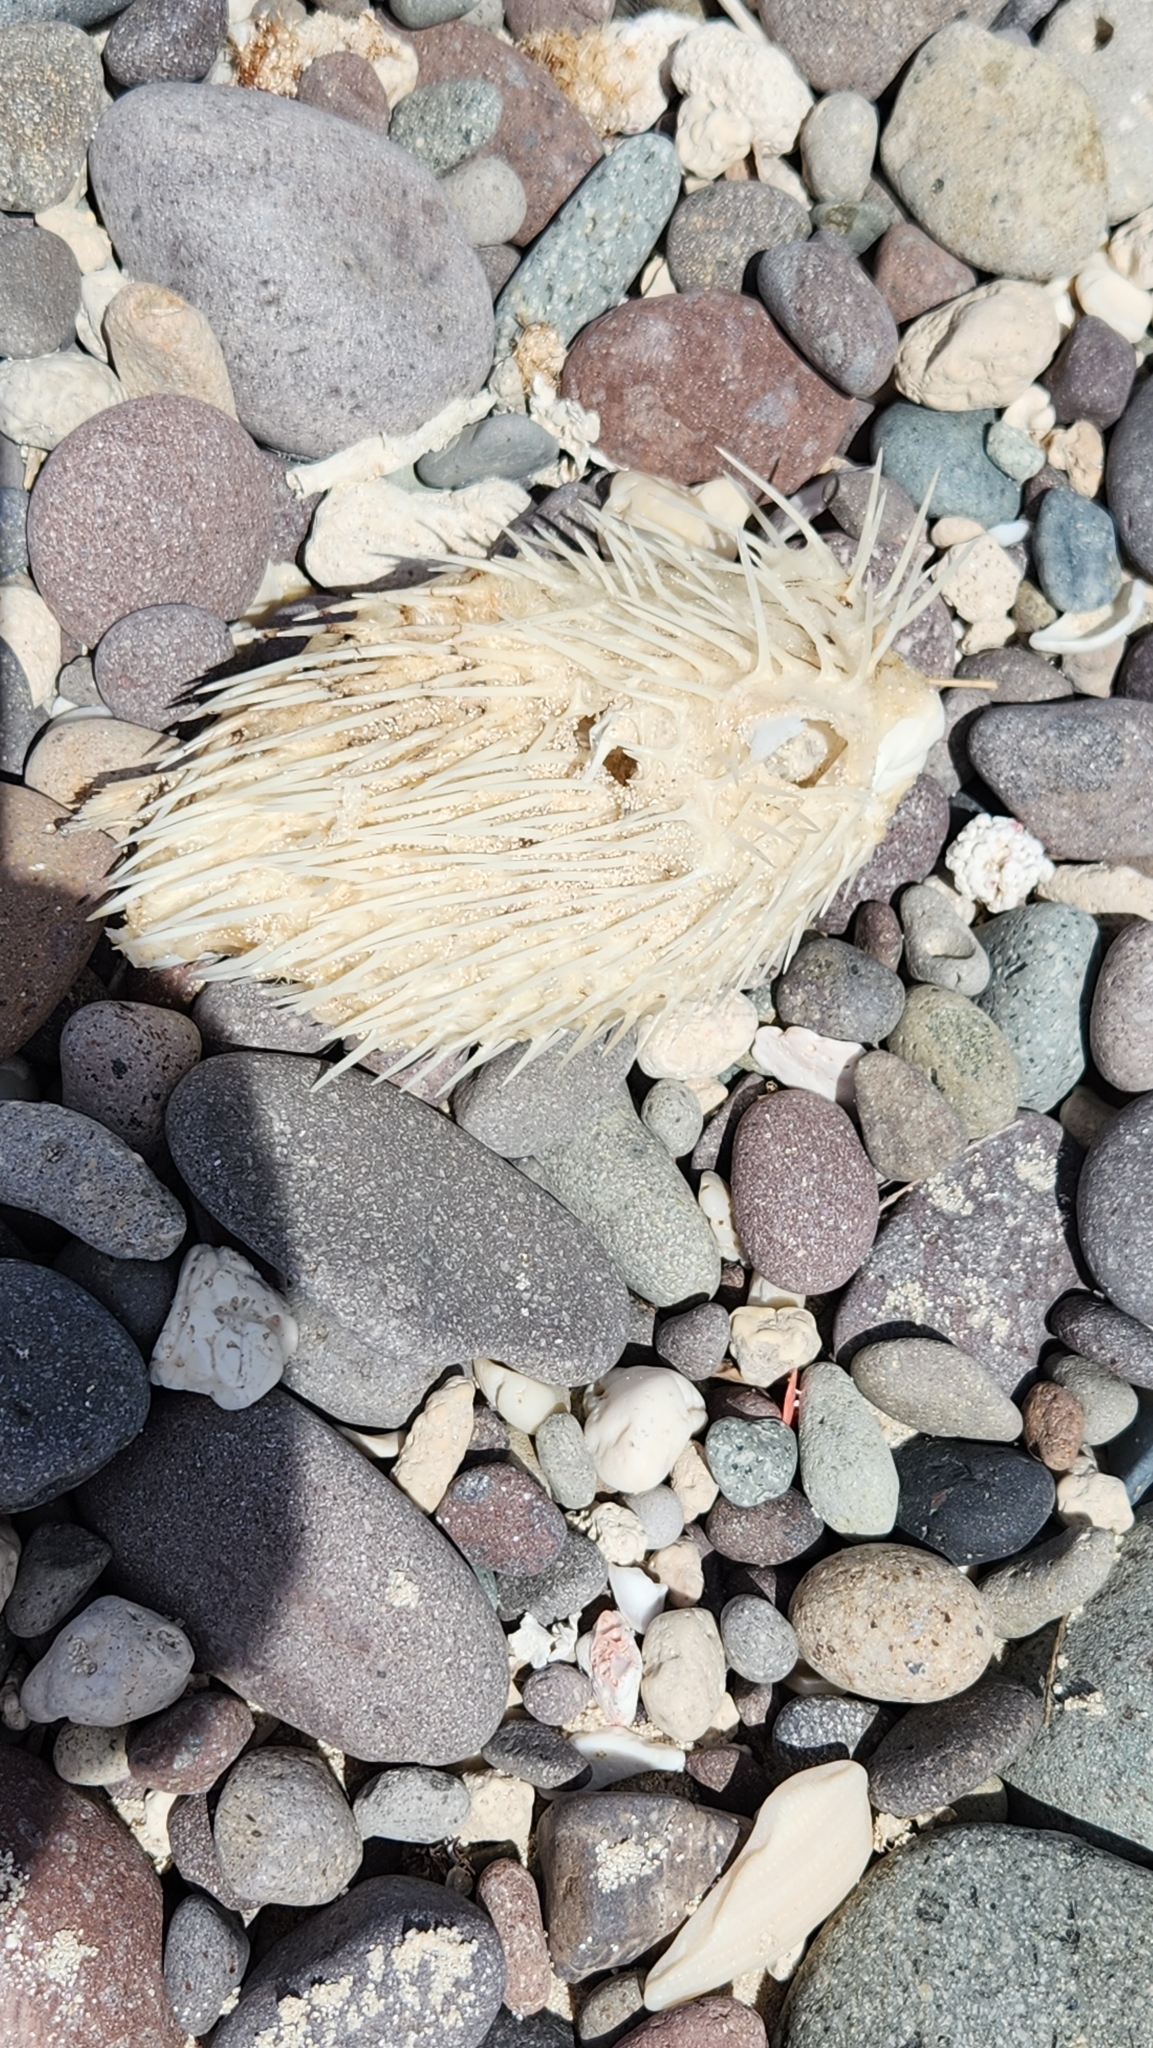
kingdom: Animalia
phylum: Chordata
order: Tetraodontiformes
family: Diodontidae
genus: Diodon
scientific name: Diodon holocanthus
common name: Balloonfish
